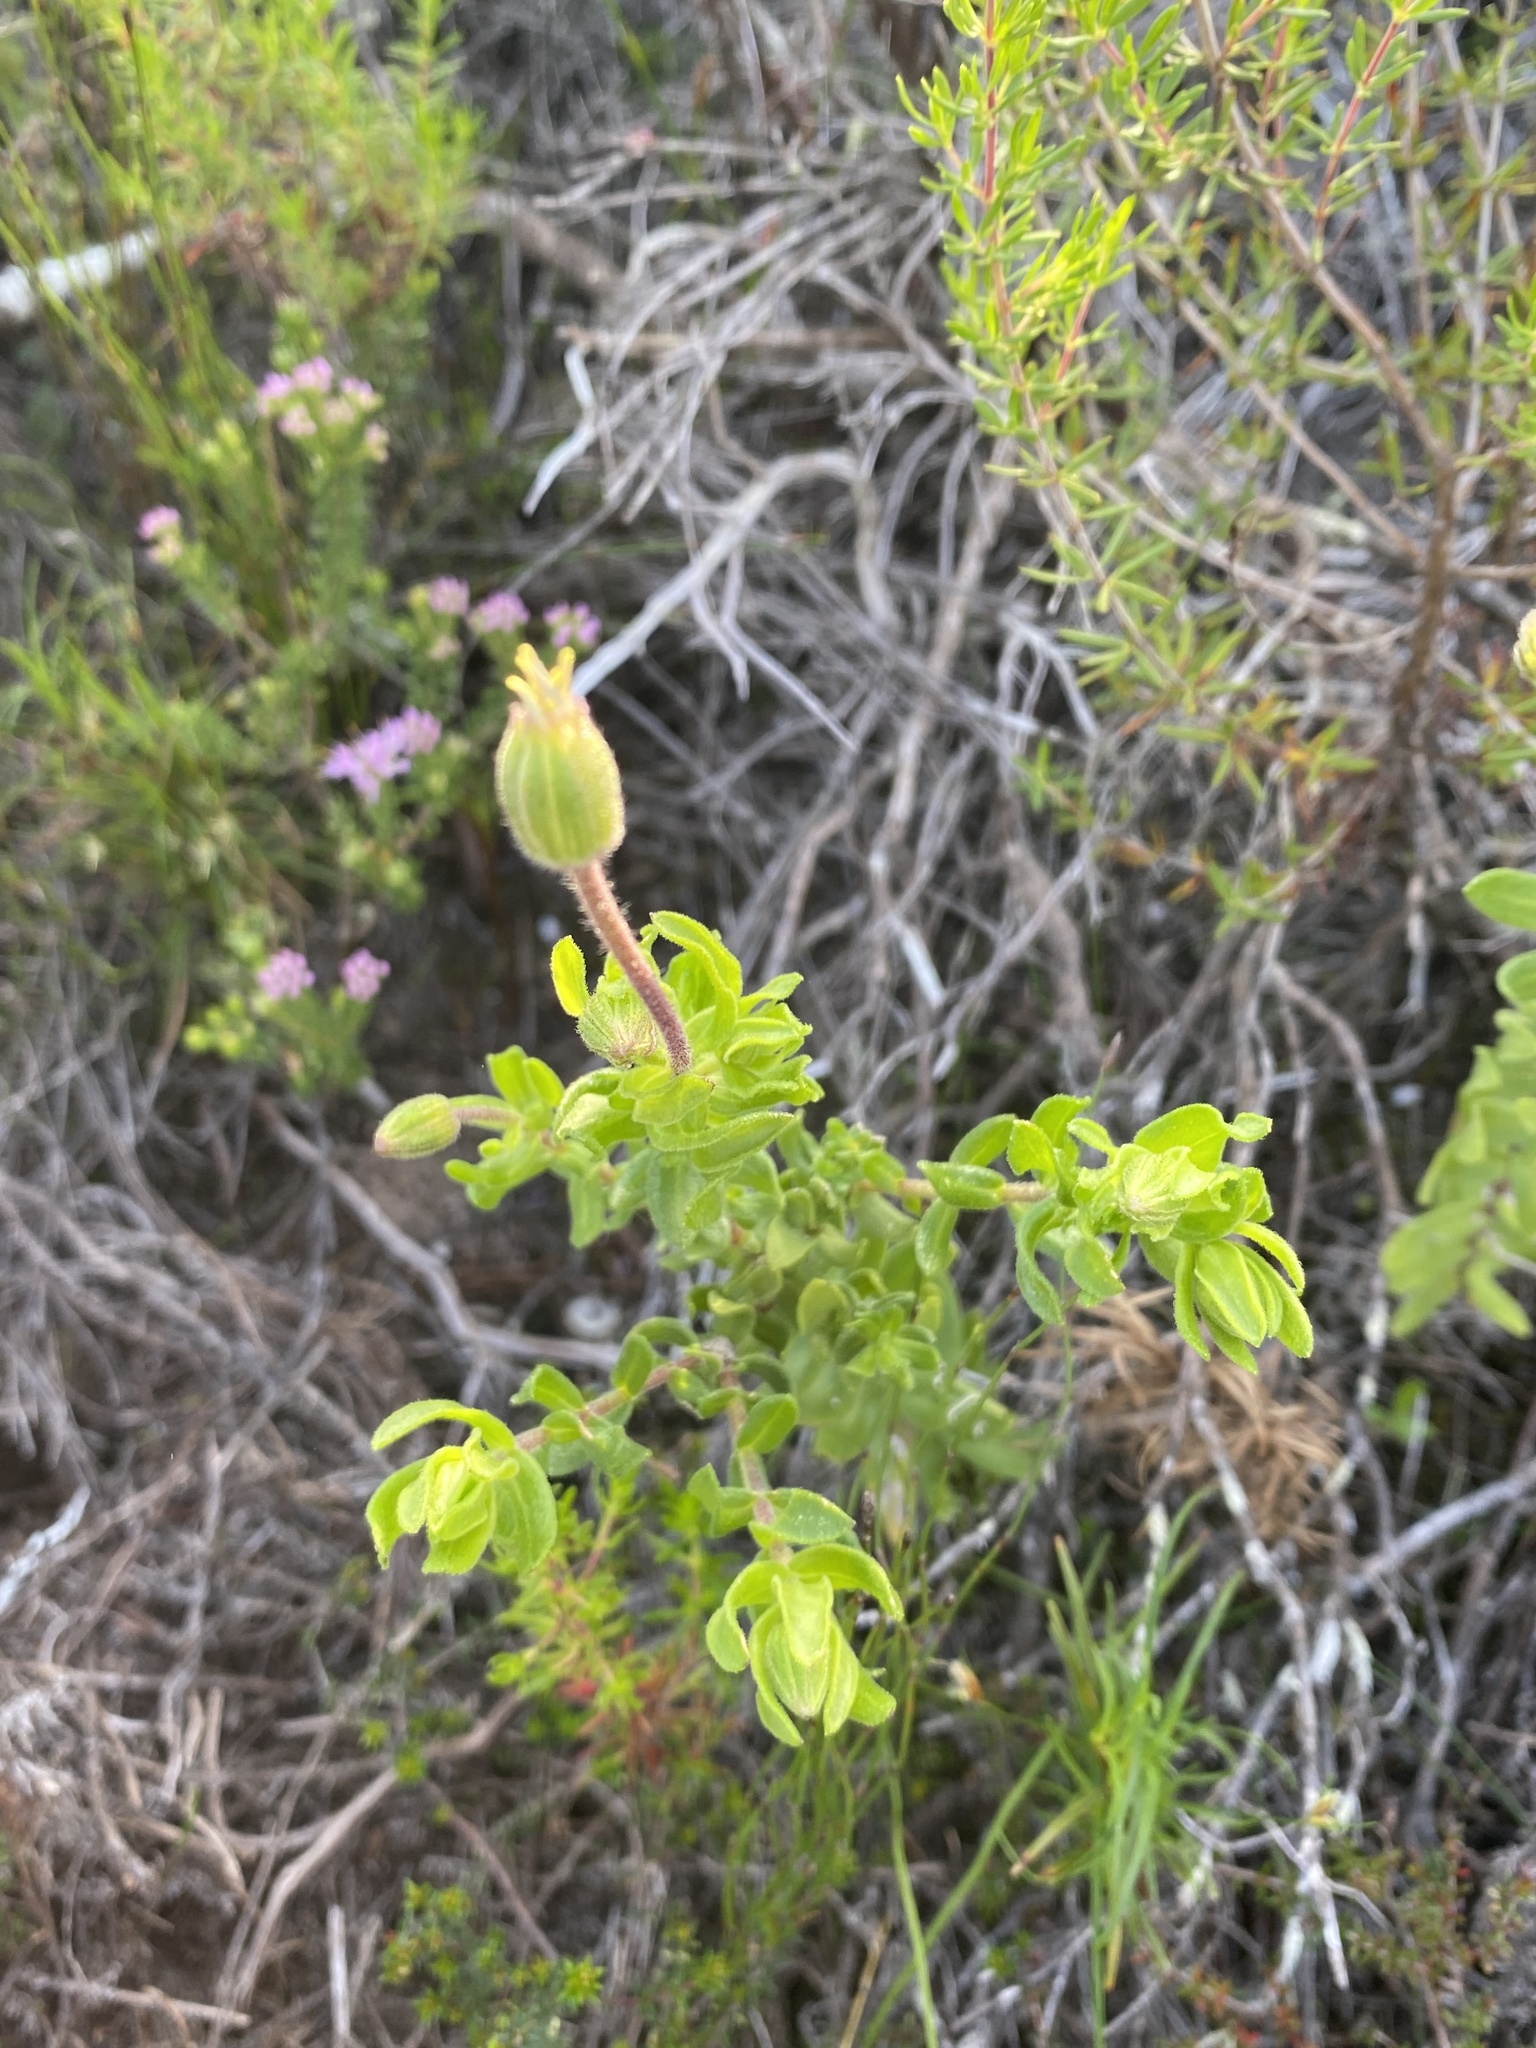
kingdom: Plantae
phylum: Tracheophyta
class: Magnoliopsida
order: Asterales
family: Asteraceae
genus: Felicia
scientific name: Felicia aethiopica
